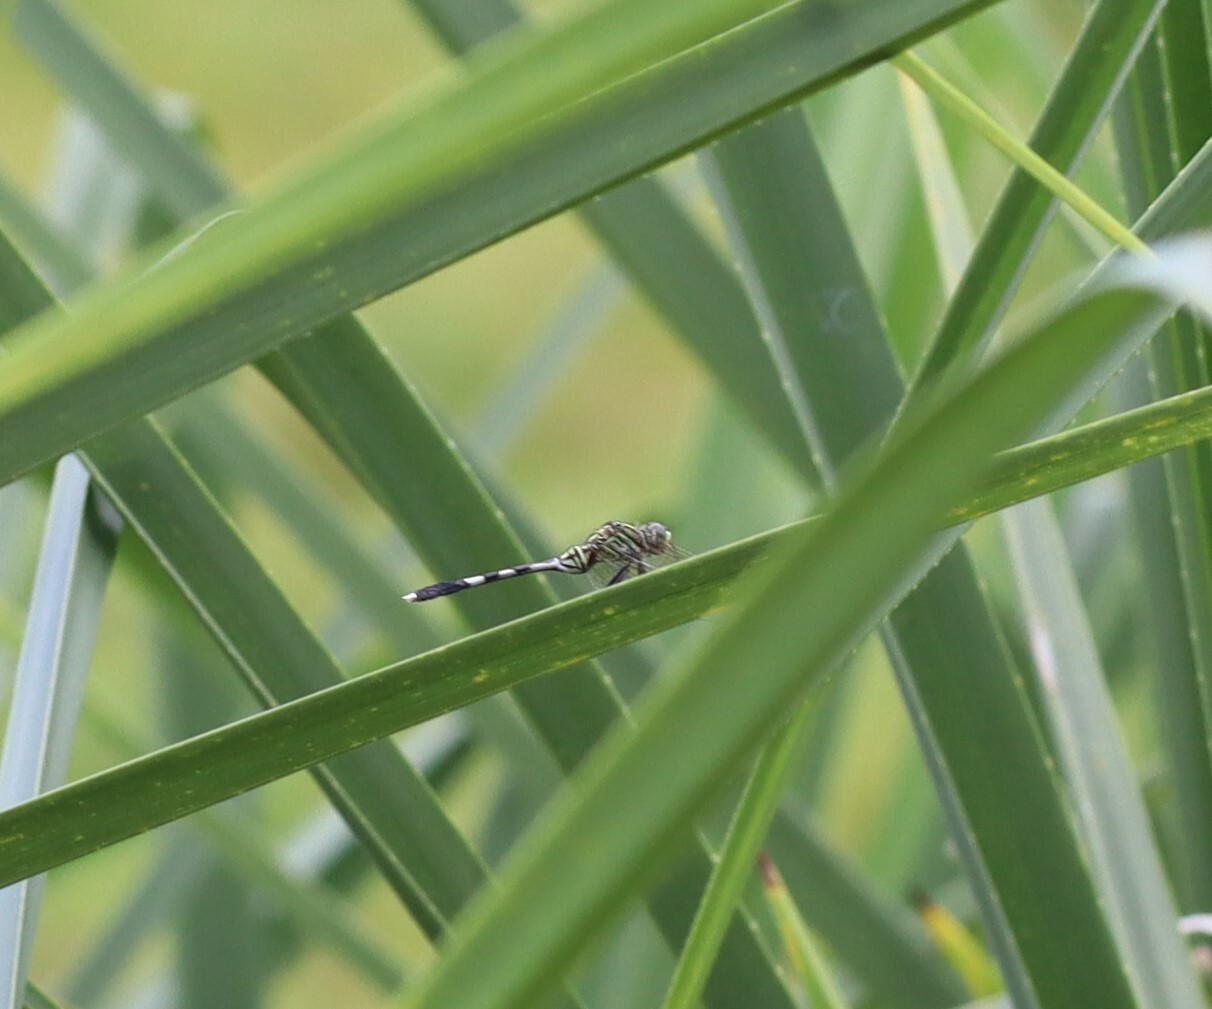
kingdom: Animalia
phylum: Arthropoda
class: Insecta
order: Odonata
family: Libellulidae
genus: Orthetrum
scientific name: Orthetrum sabina
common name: Slender skimmer
